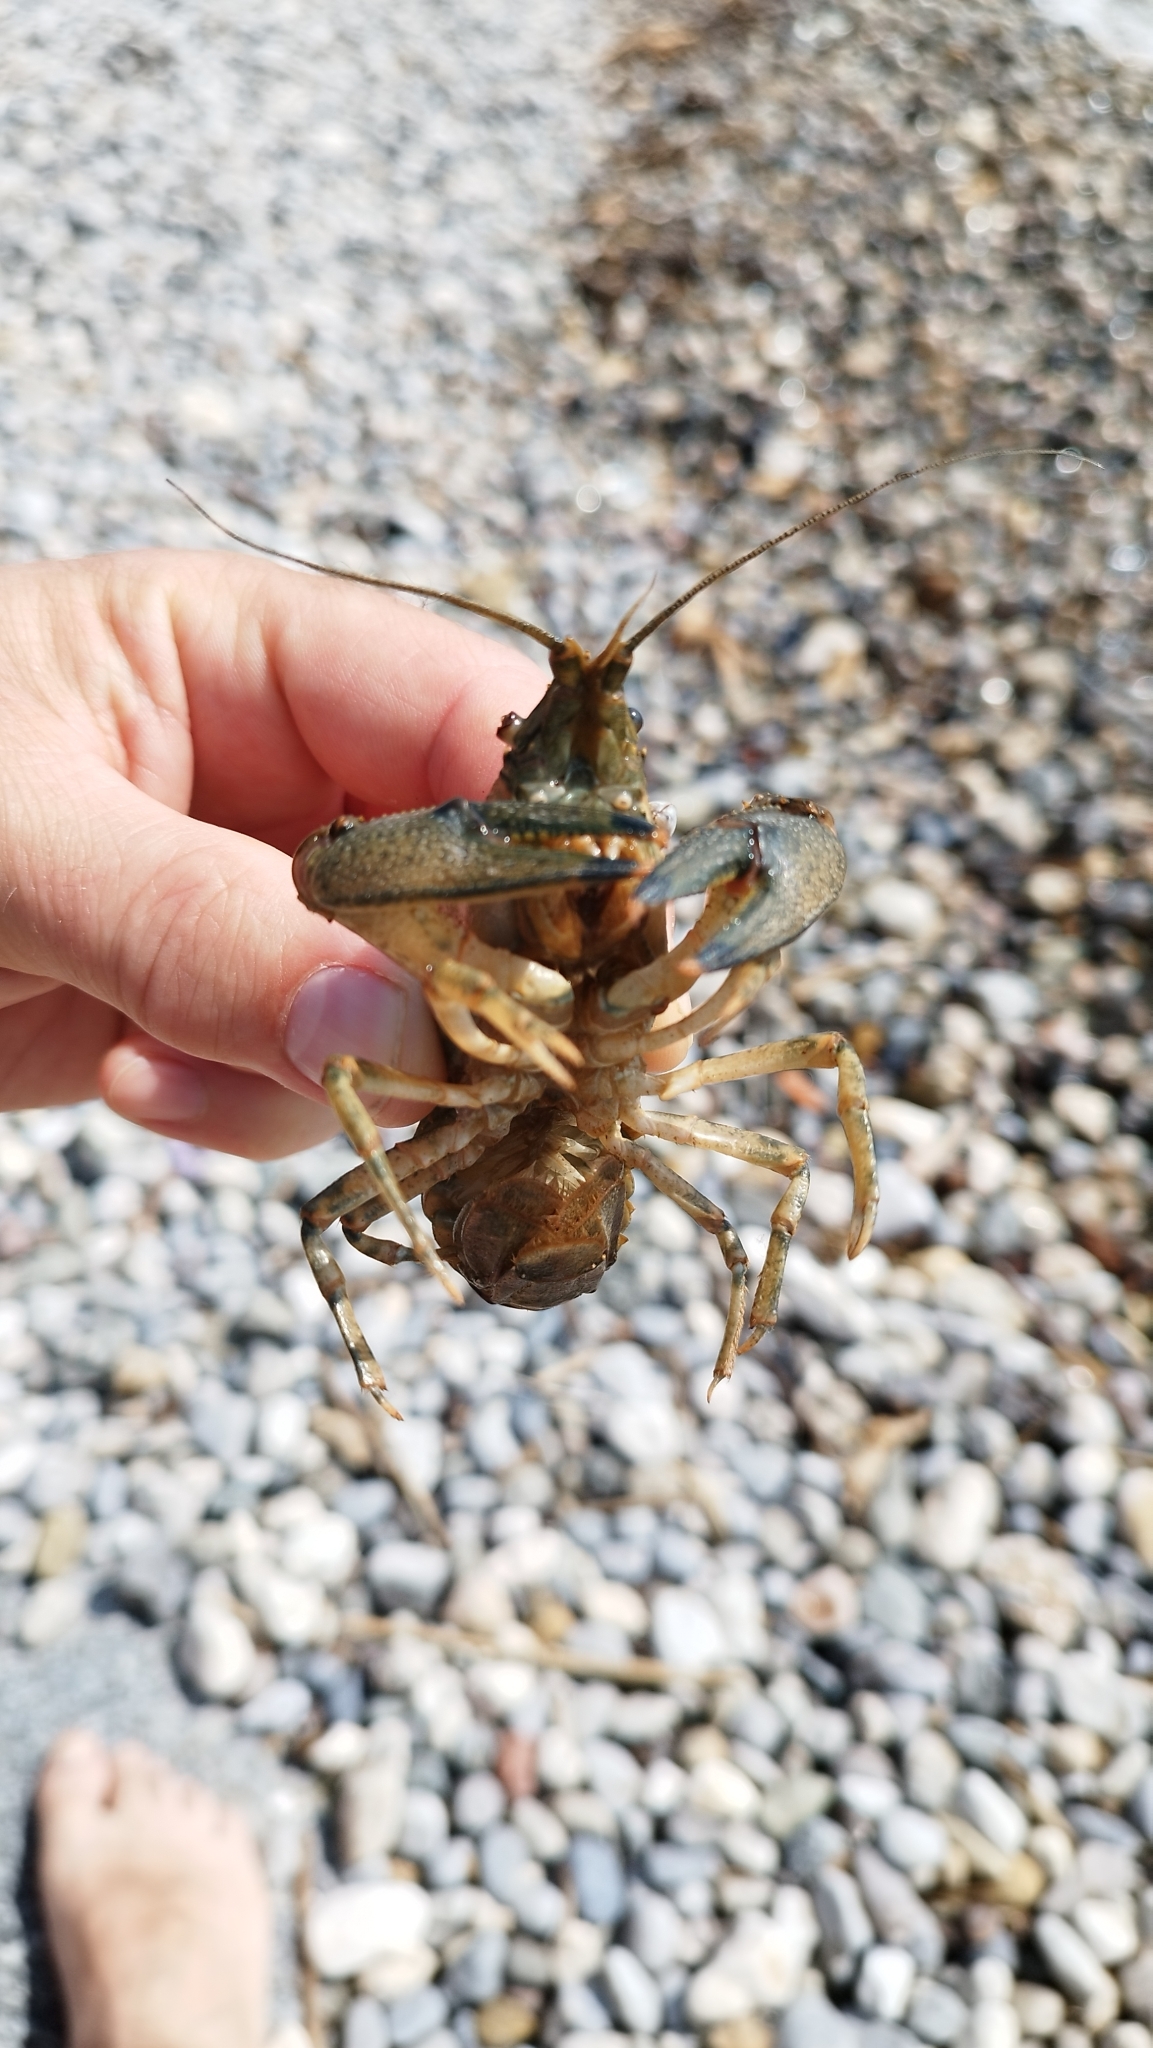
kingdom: Animalia
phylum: Arthropoda
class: Malacostraca
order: Decapoda
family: Cambaridae
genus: Faxonius
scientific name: Faxonius limosus
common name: American crayfish
